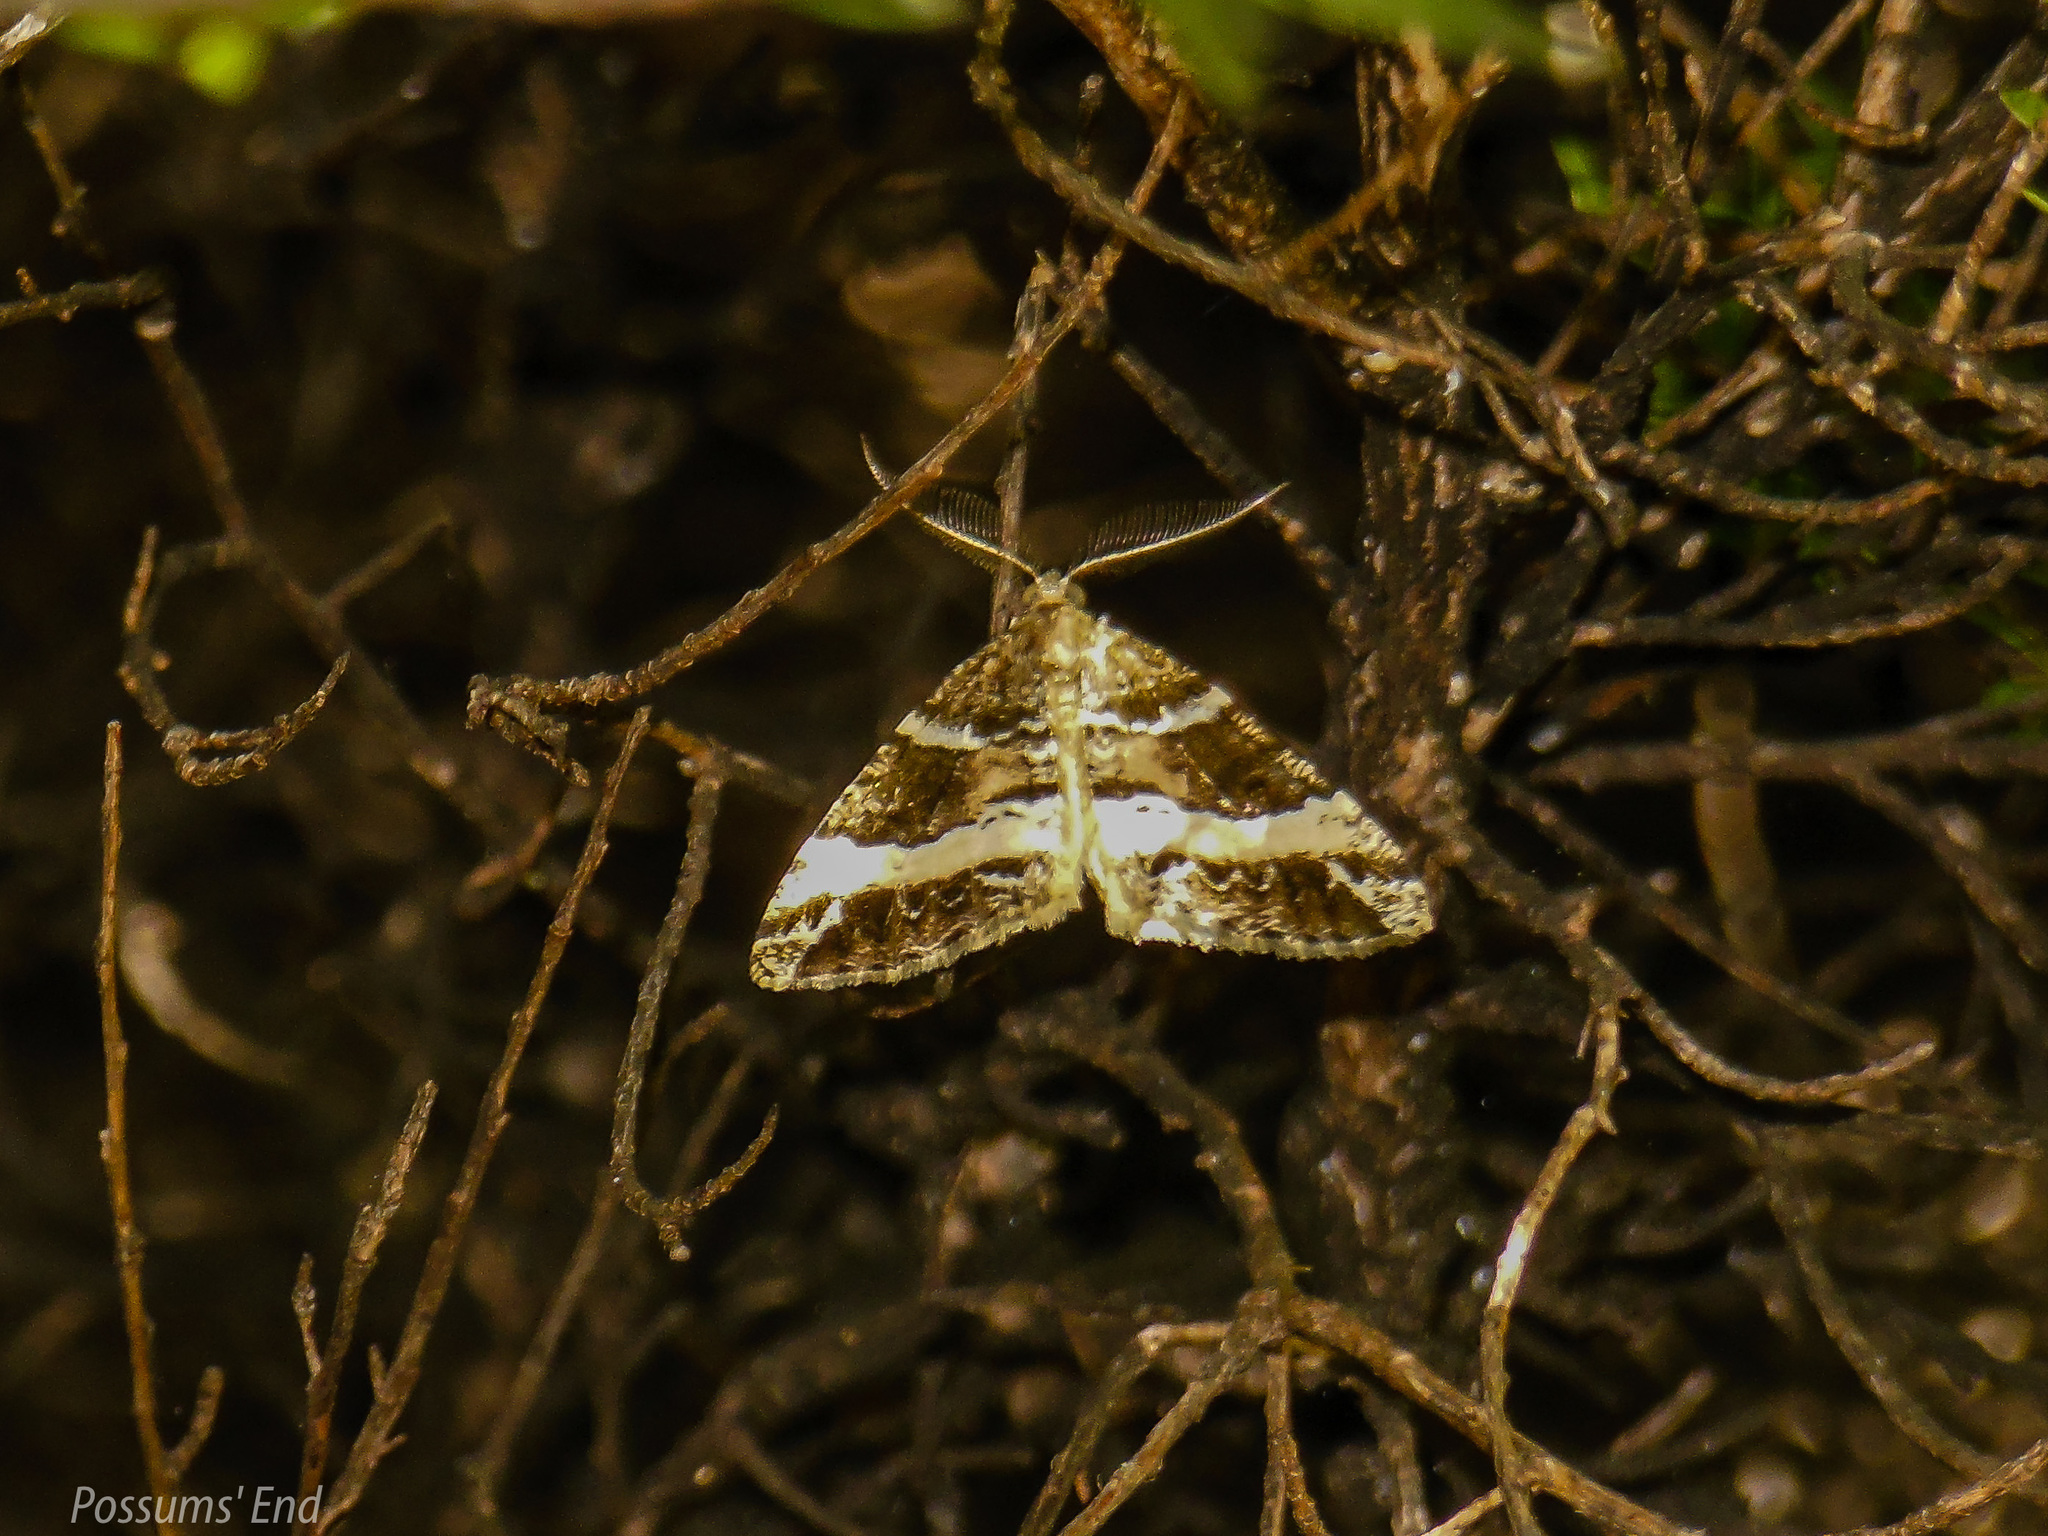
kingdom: Animalia
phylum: Arthropoda
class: Insecta
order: Lepidoptera
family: Geometridae
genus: Pseudocoremia
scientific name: Pseudocoremia
